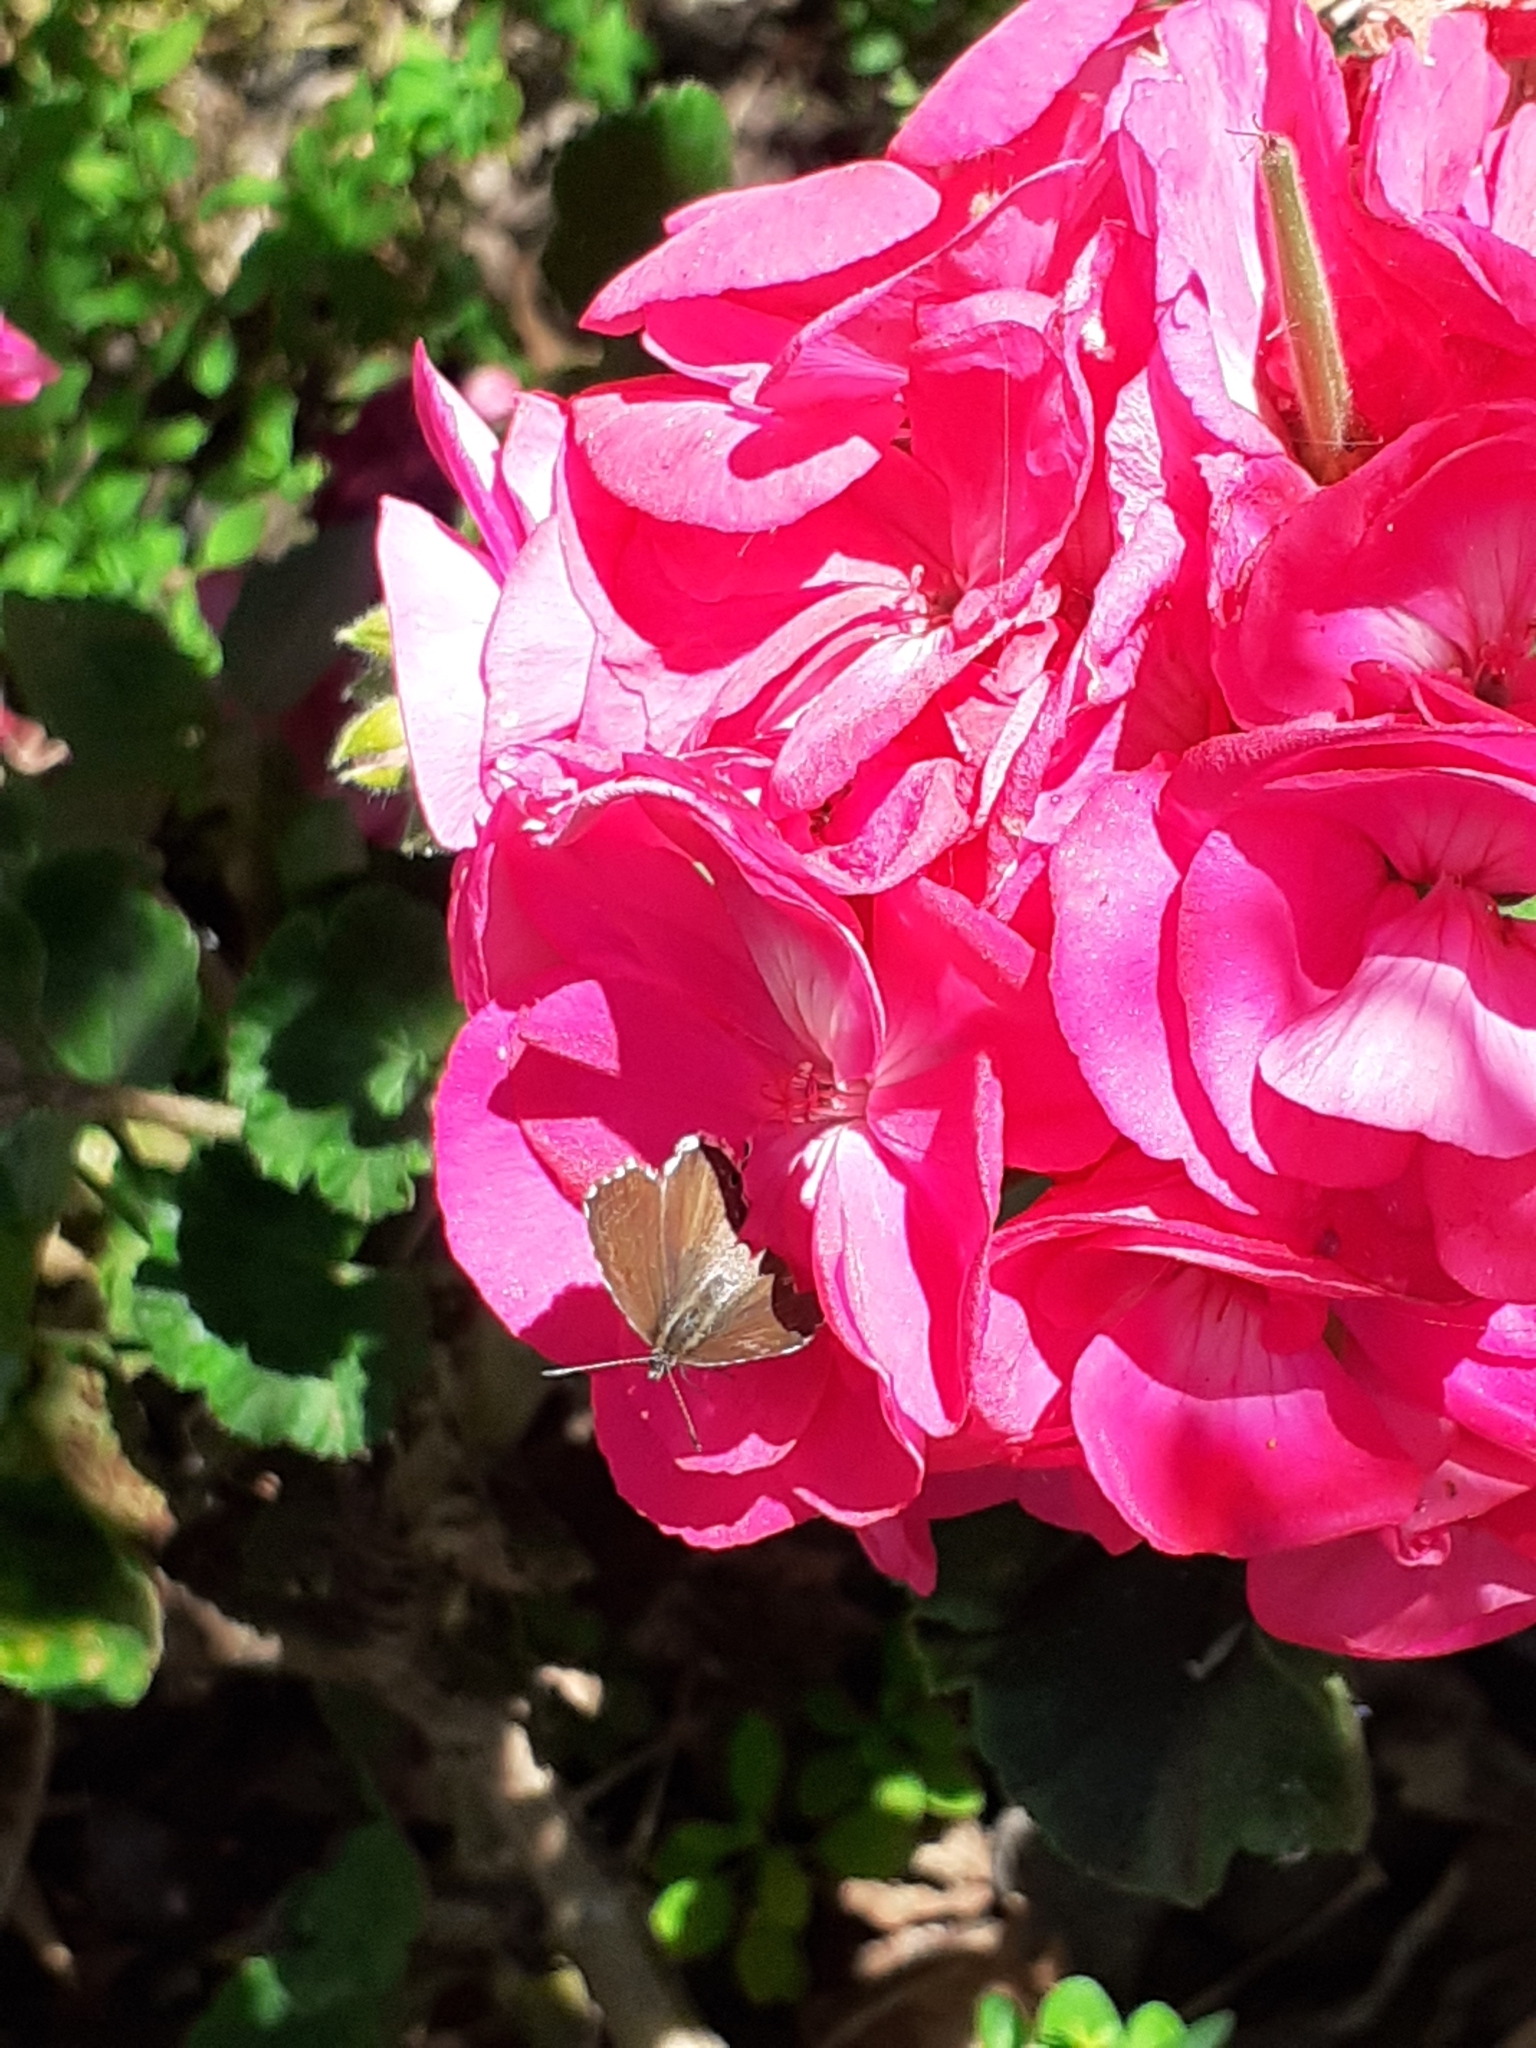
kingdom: Animalia
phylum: Arthropoda
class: Insecta
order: Lepidoptera
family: Lycaenidae
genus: Cacyreus
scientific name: Cacyreus marshalli
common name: Geranium bronze
